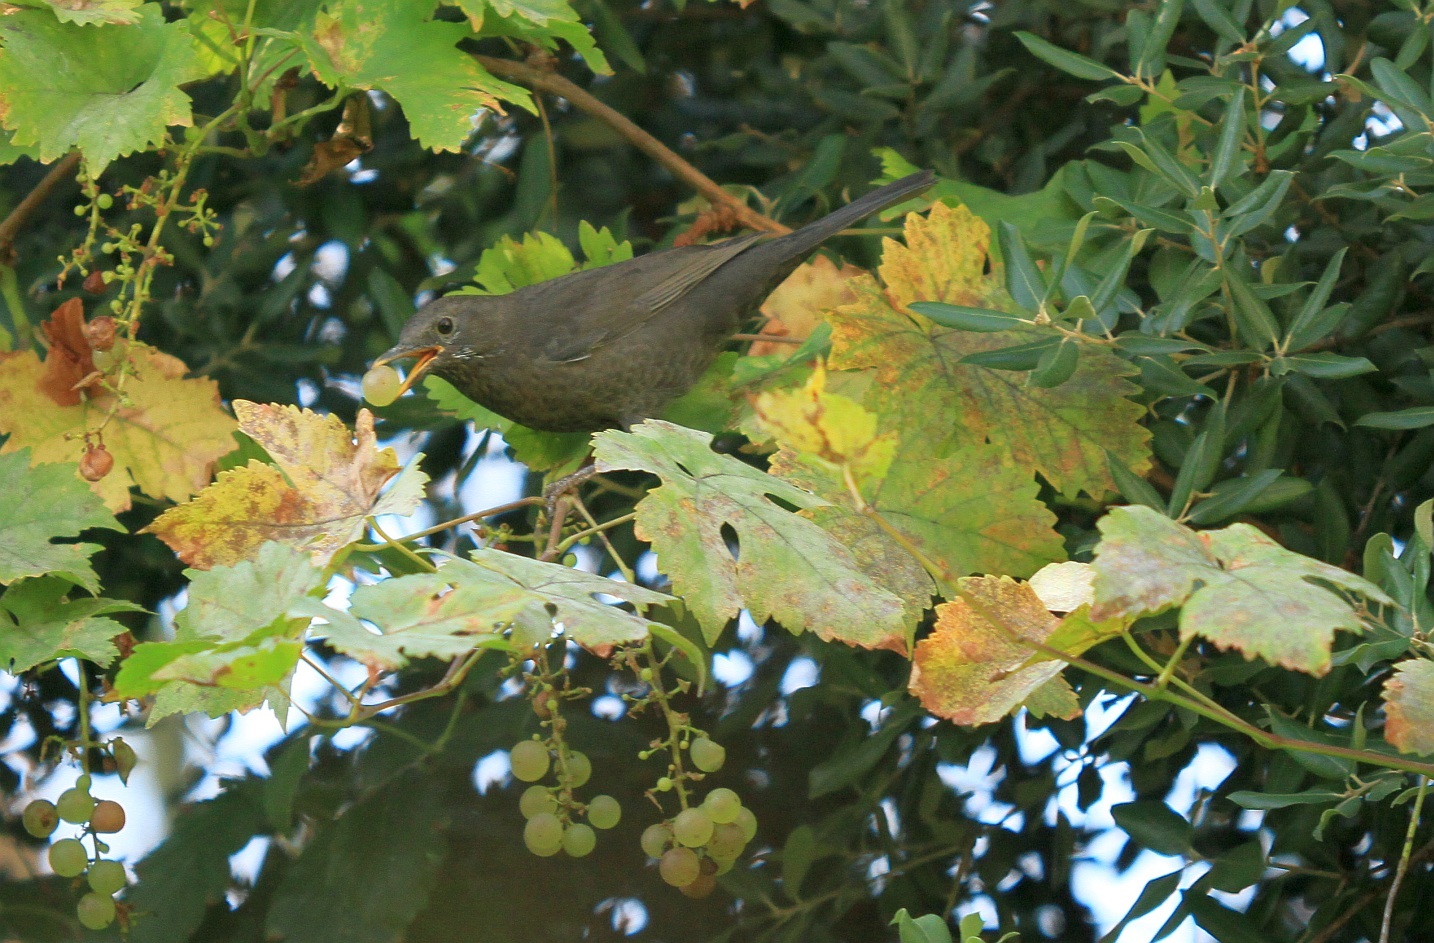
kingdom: Animalia
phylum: Chordata
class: Aves
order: Passeriformes
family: Turdidae
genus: Turdus
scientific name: Turdus merula
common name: Common blackbird
